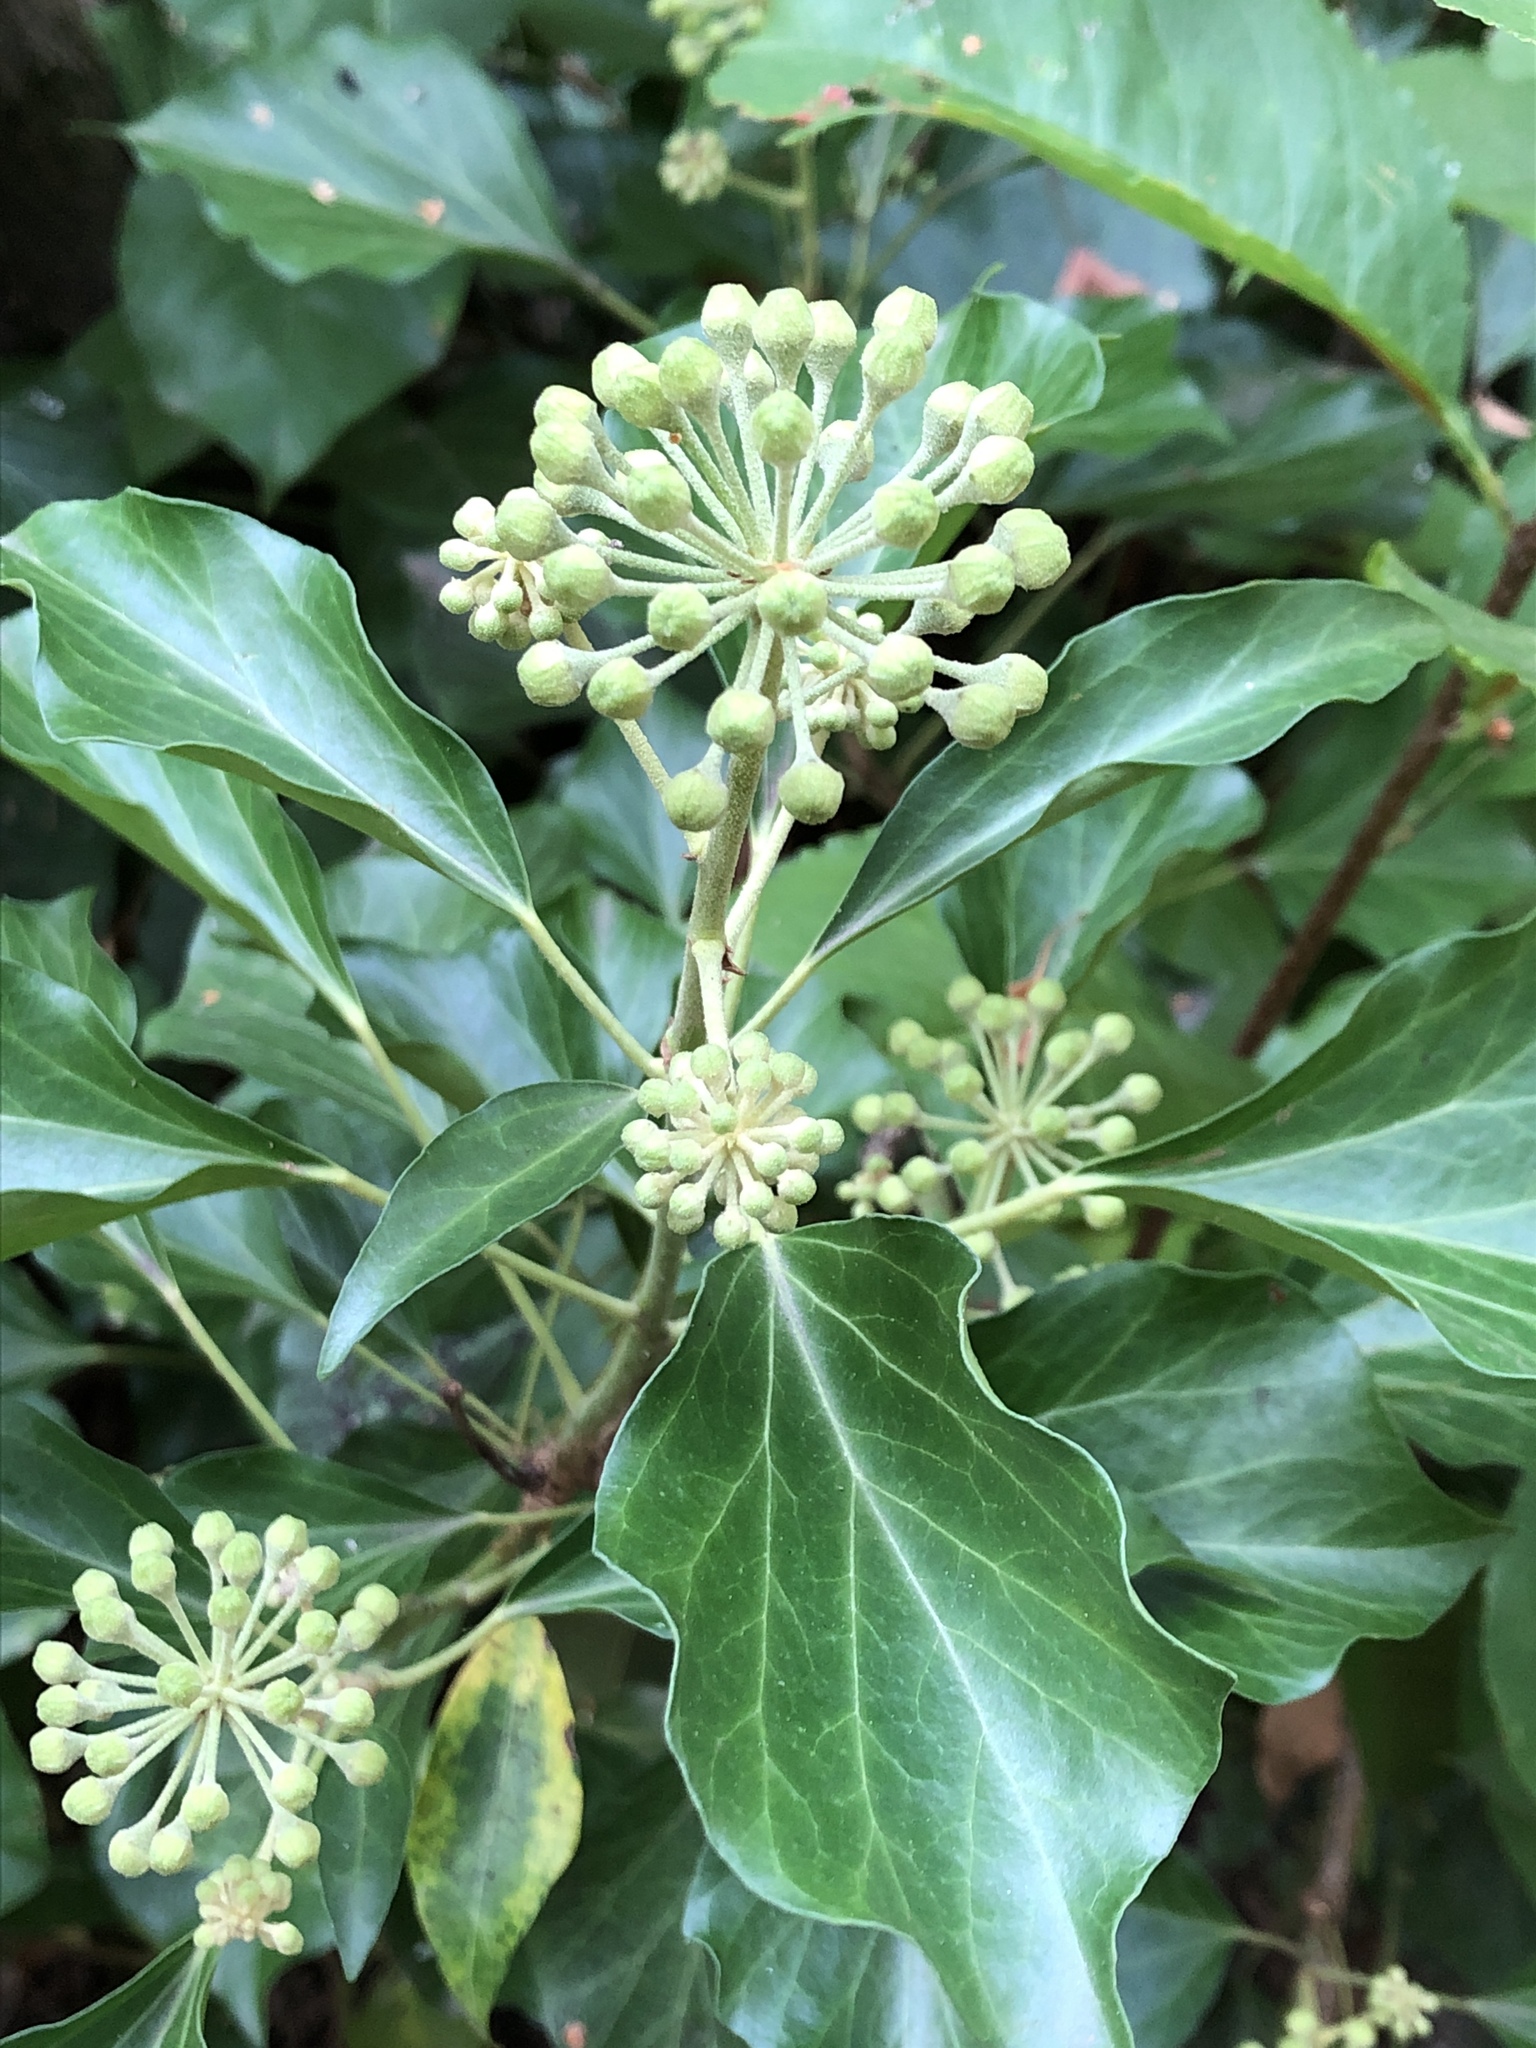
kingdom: Plantae
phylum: Tracheophyta
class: Magnoliopsida
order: Apiales
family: Araliaceae
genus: Hedera
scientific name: Hedera helix
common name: Ivy
